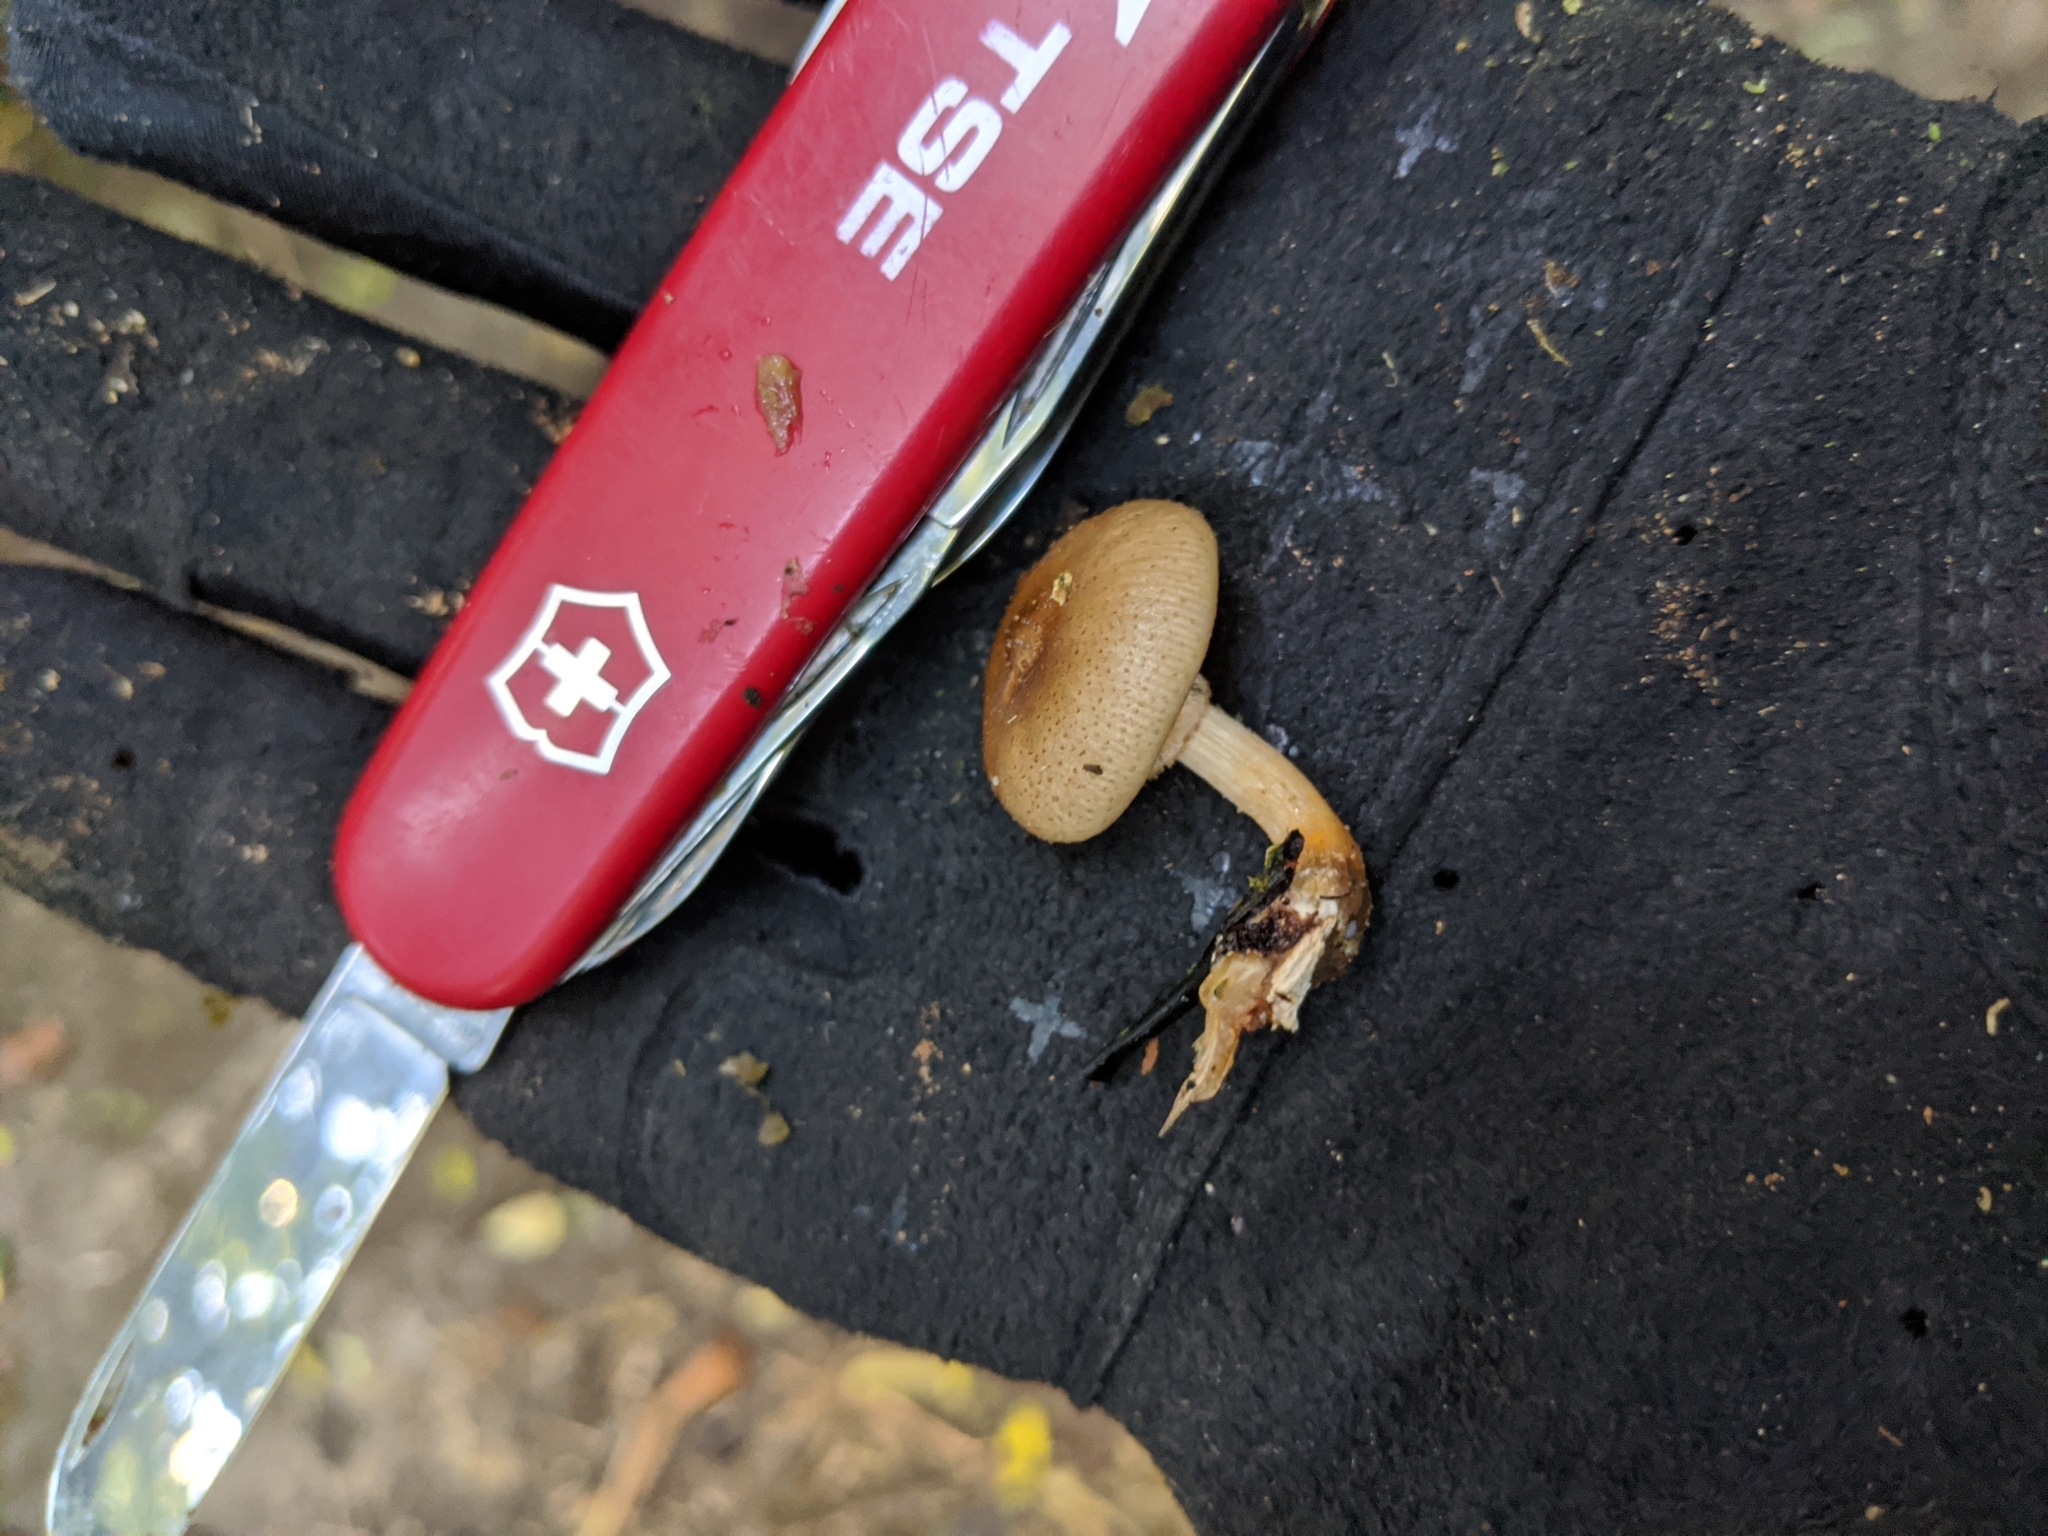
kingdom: Fungi
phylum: Basidiomycota
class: Agaricomycetes
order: Agaricales
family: Physalacriaceae
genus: Armillaria
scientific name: Armillaria novae-zelandiae
